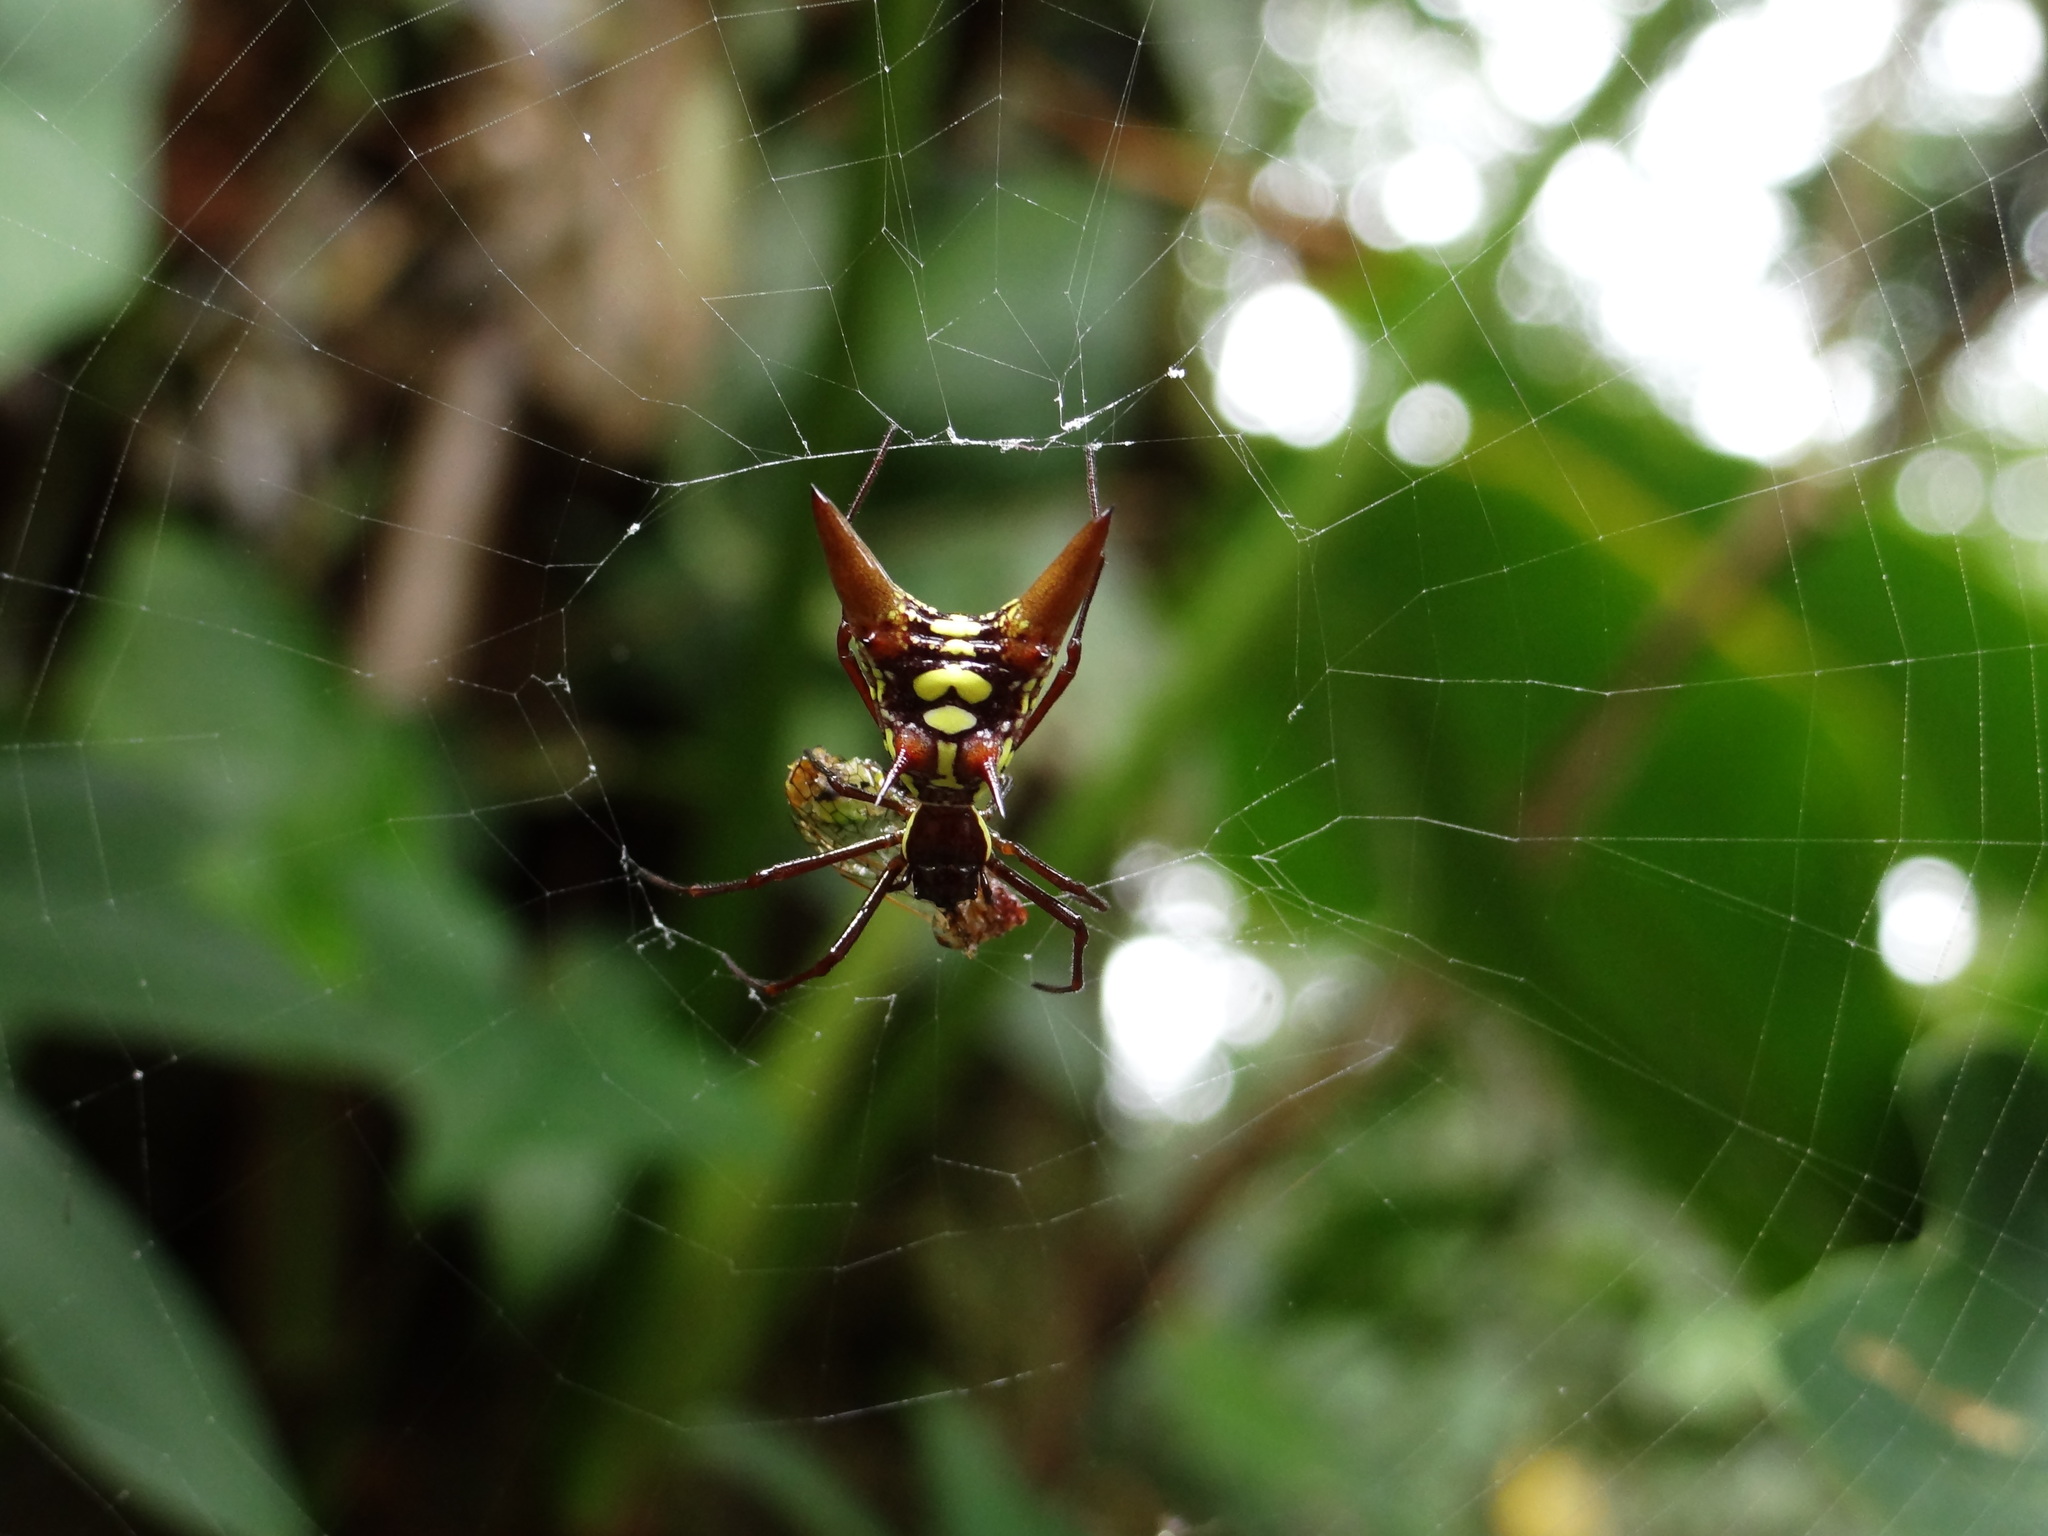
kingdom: Animalia
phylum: Arthropoda
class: Arachnida
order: Araneae
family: Araneidae
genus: Micrathena
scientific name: Micrathena sexspinosa
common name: Orb weavers
